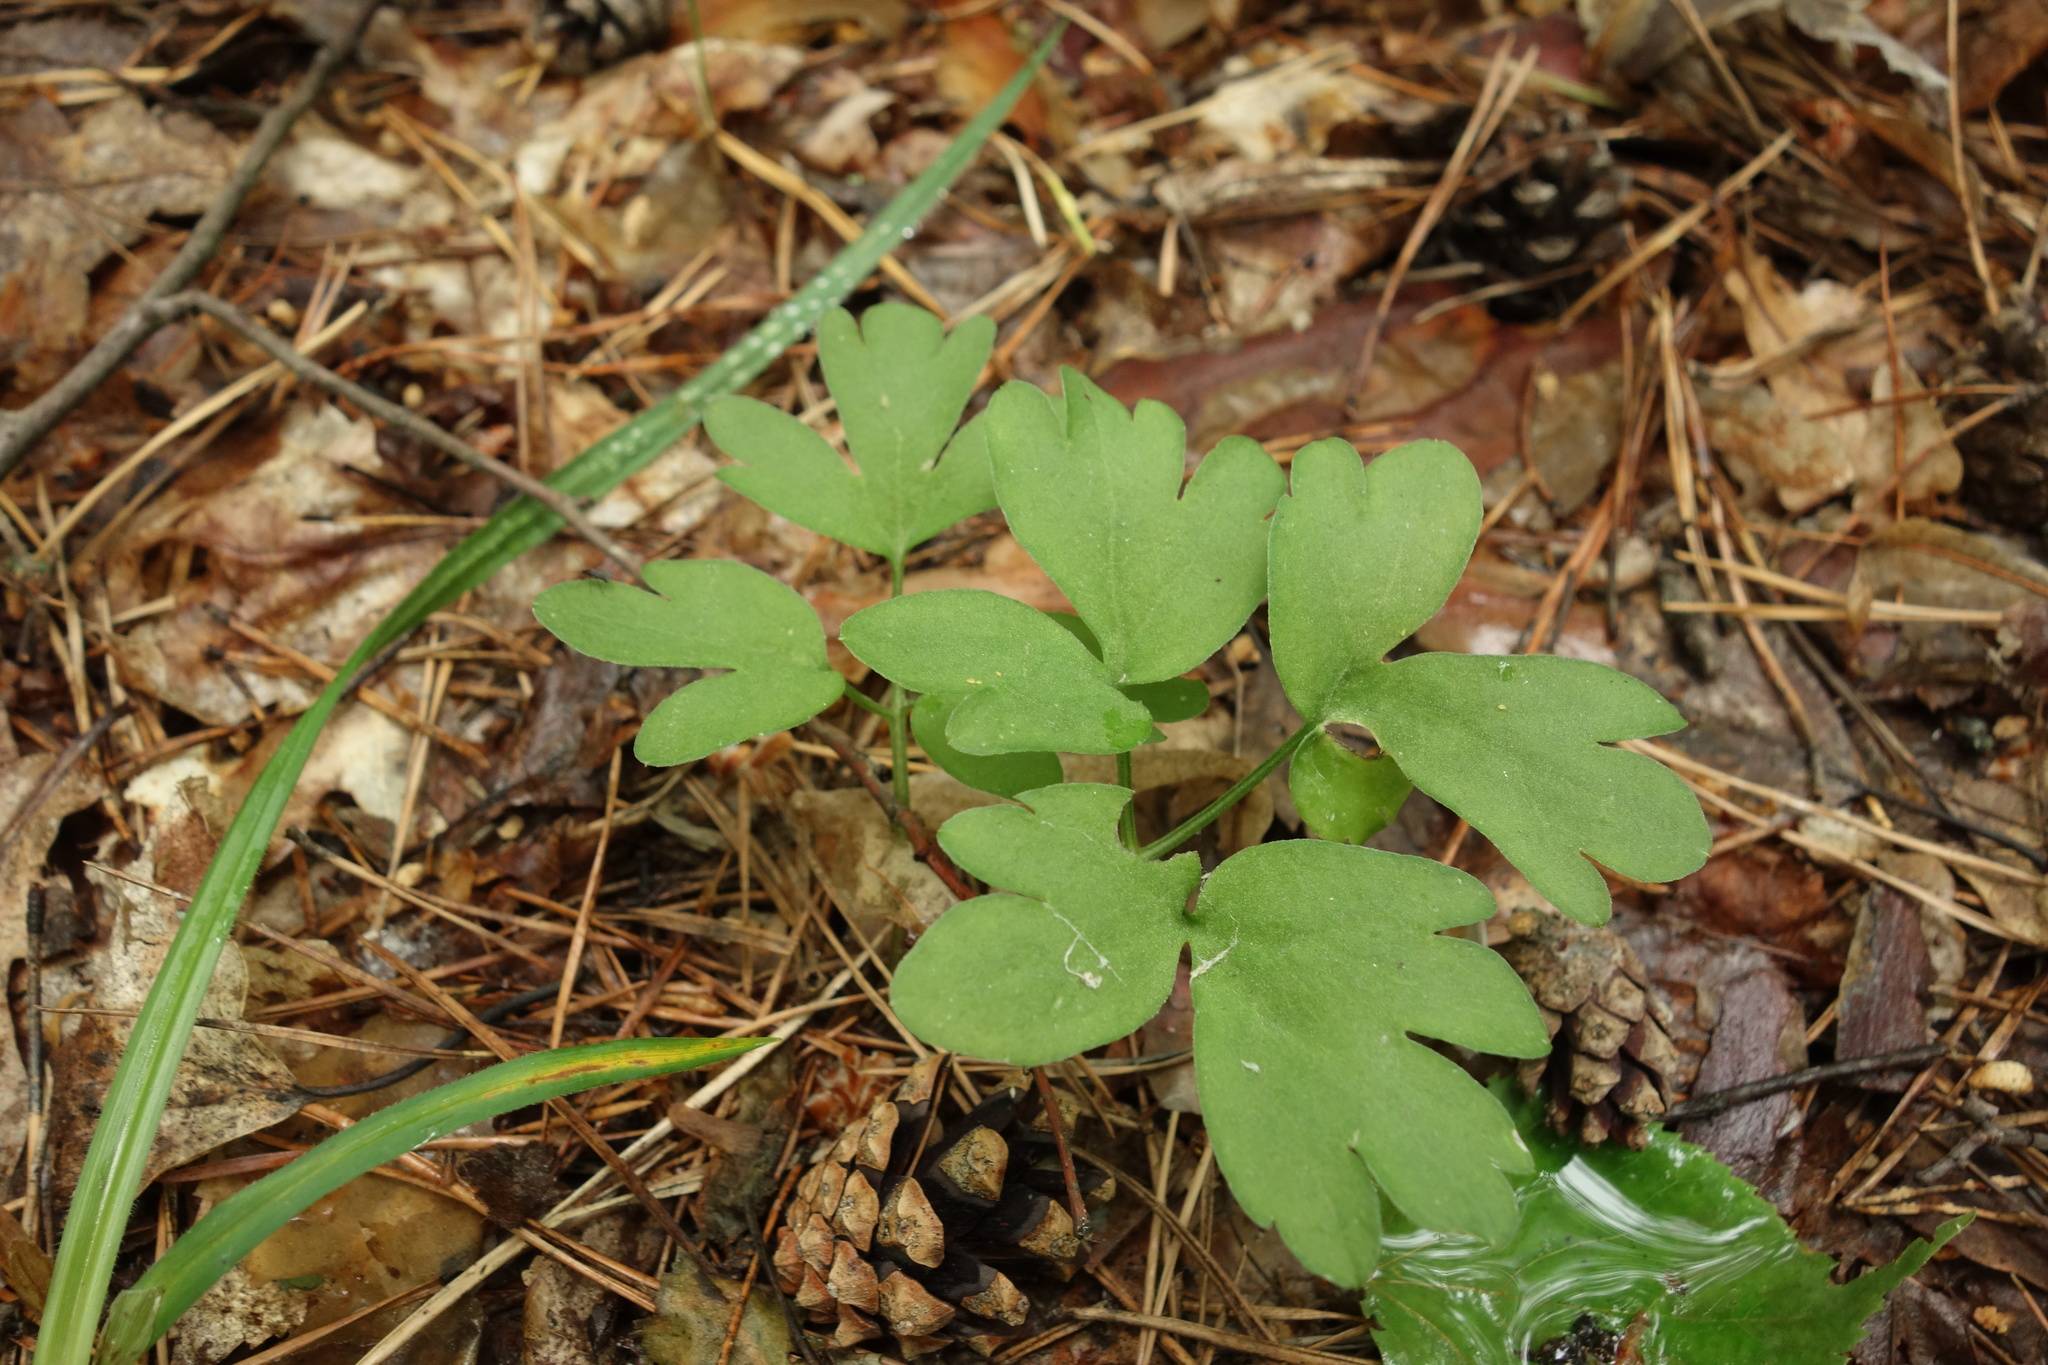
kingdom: Plantae
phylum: Tracheophyta
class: Magnoliopsida
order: Dipsacales
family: Viburnaceae
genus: Adoxa
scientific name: Adoxa moschatellina
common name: Moschatel
